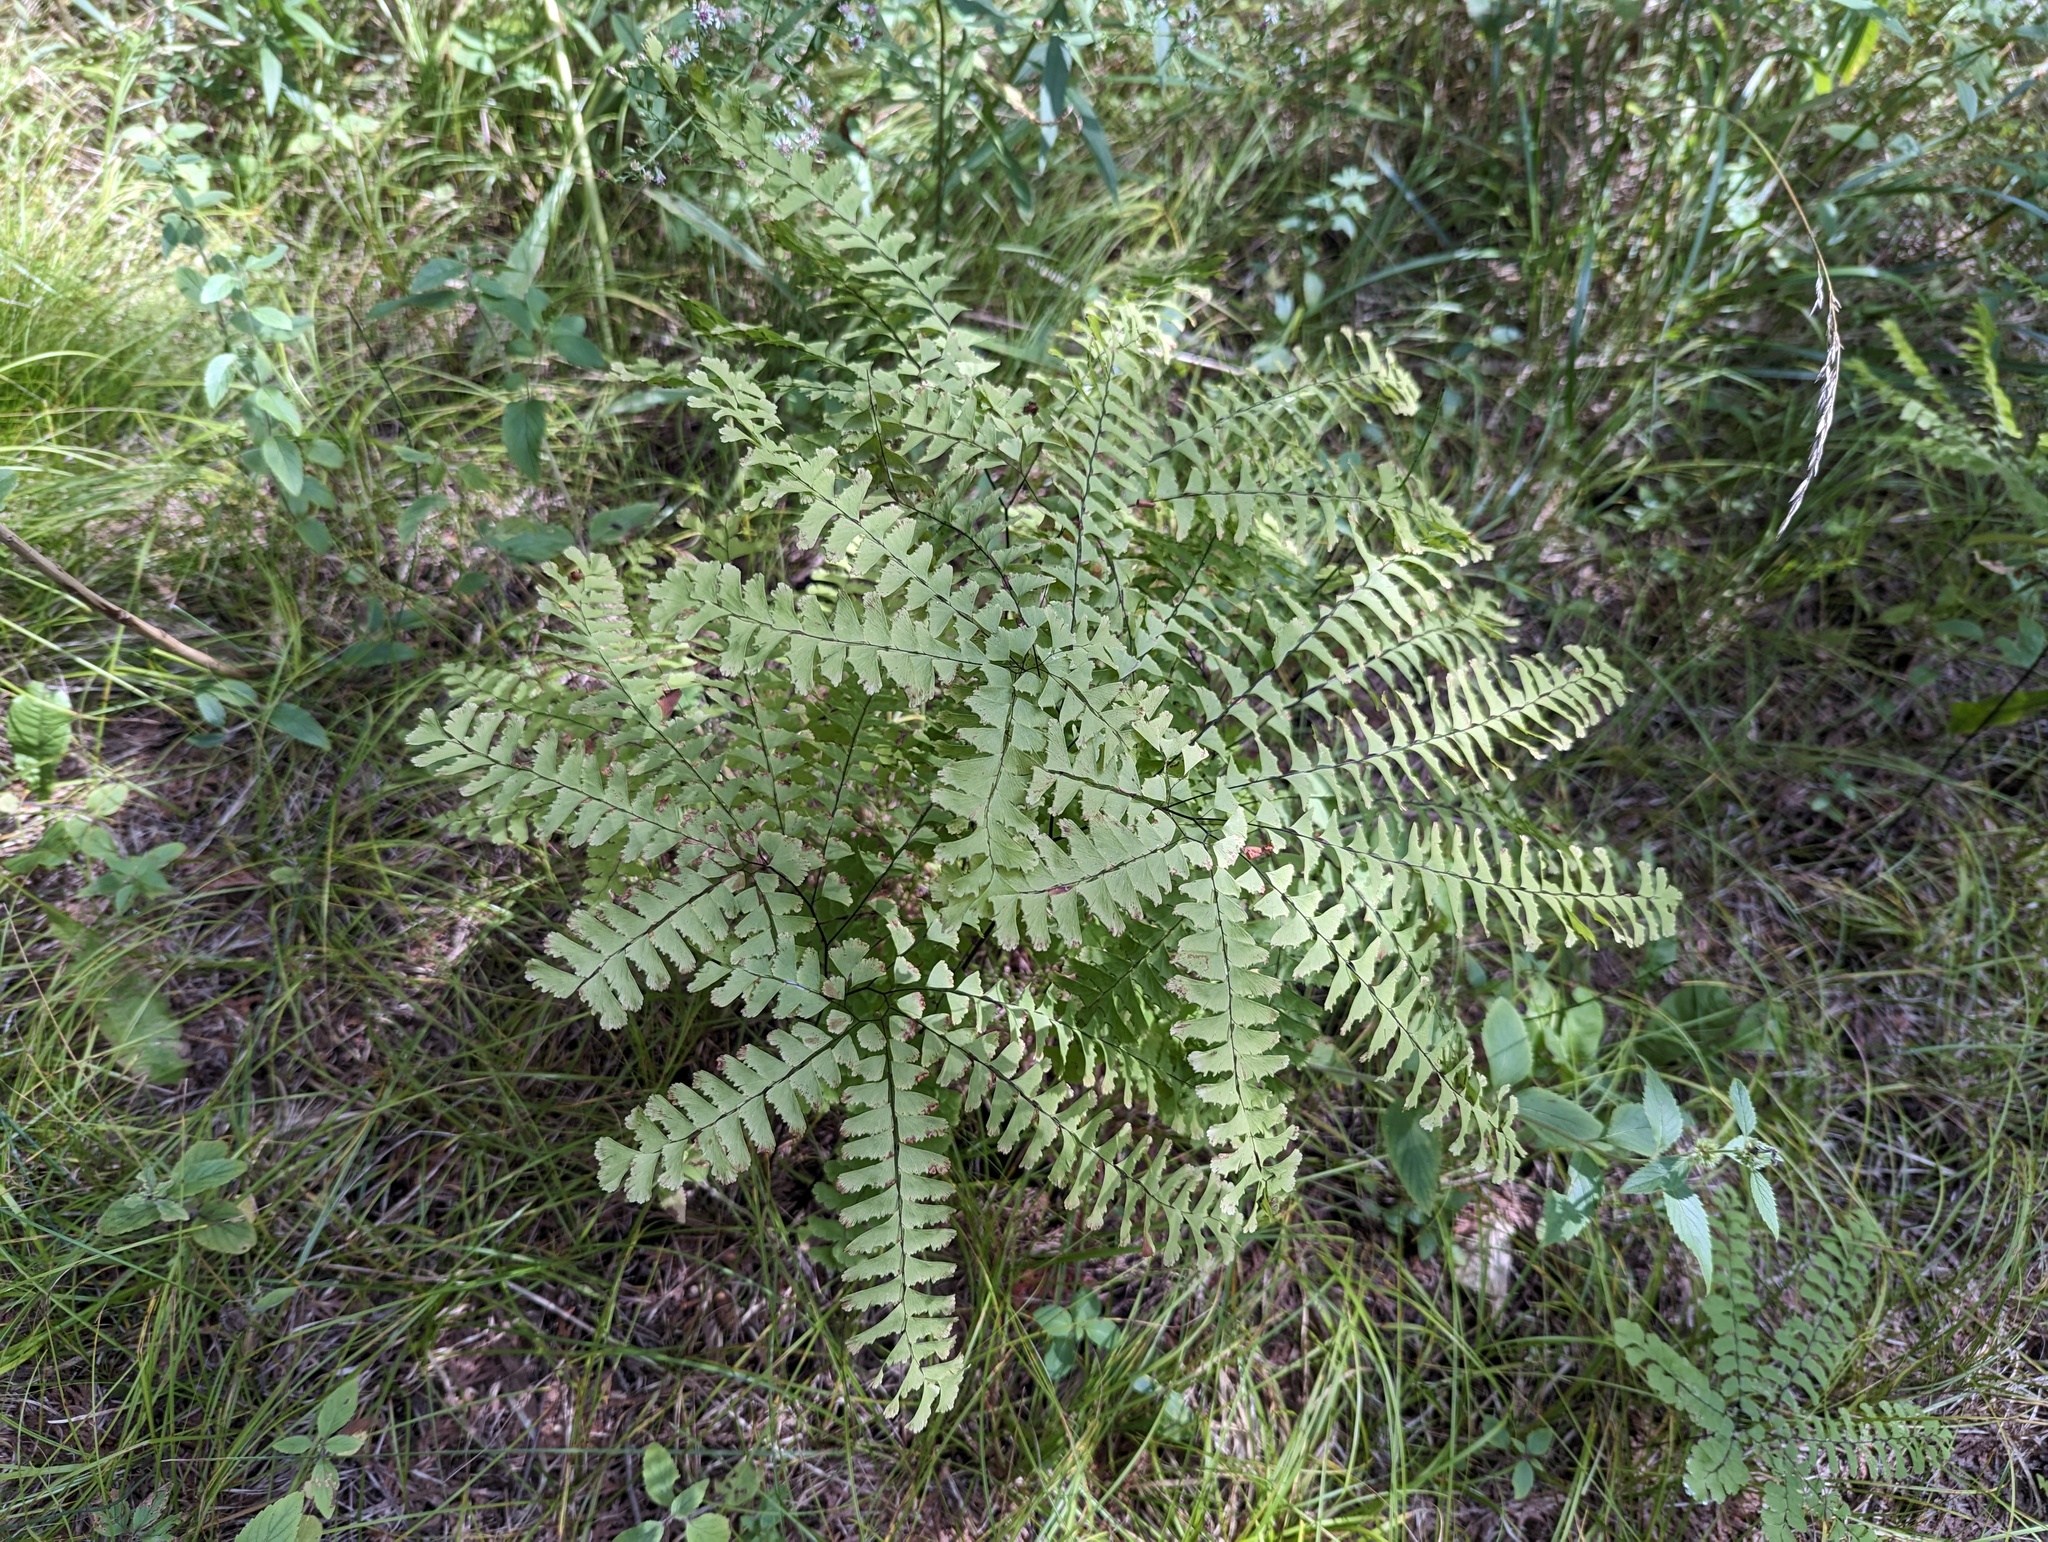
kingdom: Plantae
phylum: Tracheophyta
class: Polypodiopsida
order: Polypodiales
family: Pteridaceae
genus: Adiantum
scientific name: Adiantum pedatum
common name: Five-finger fern
